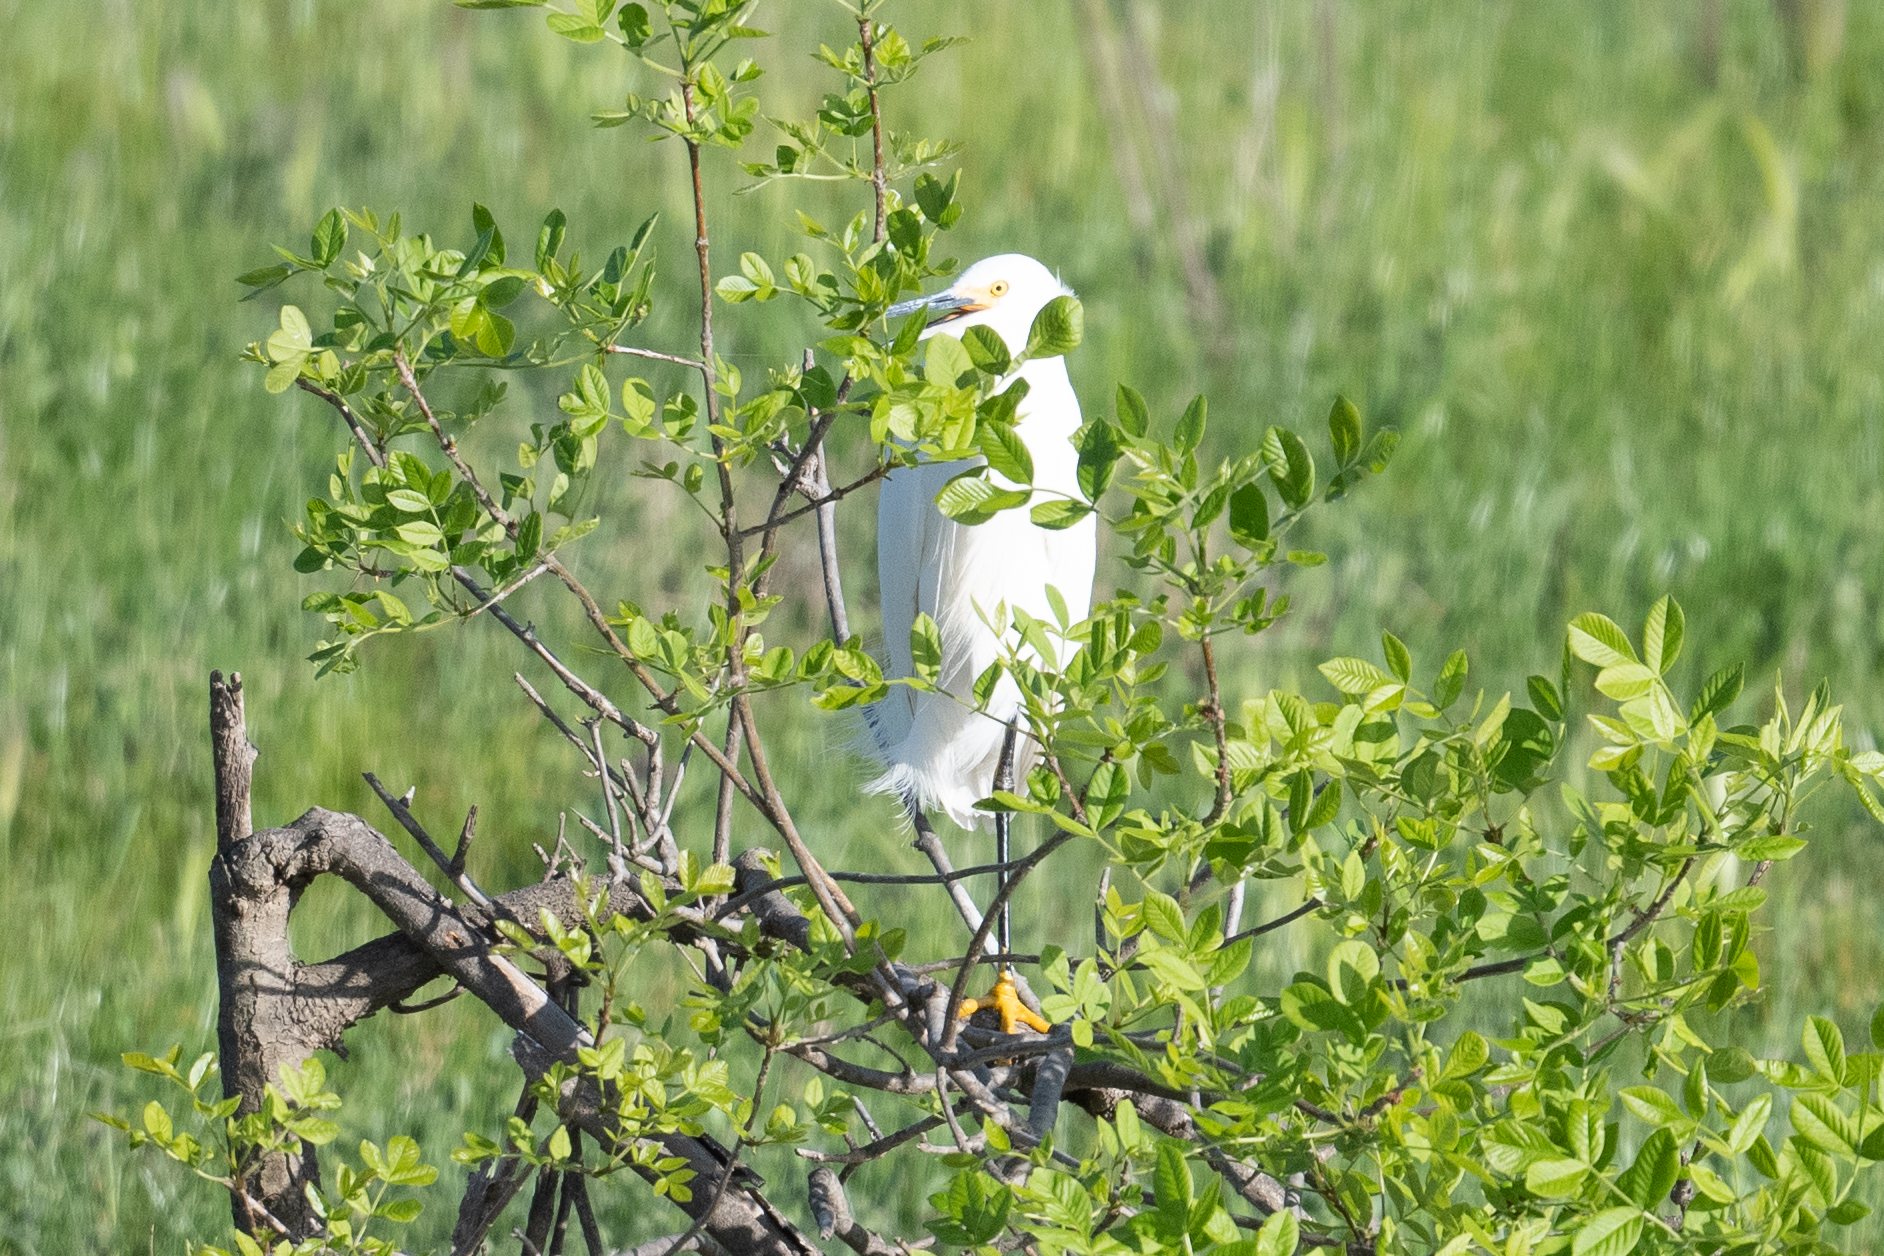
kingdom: Animalia
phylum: Chordata
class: Aves
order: Pelecaniformes
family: Ardeidae
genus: Ardea
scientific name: Ardea alba
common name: Great egret
